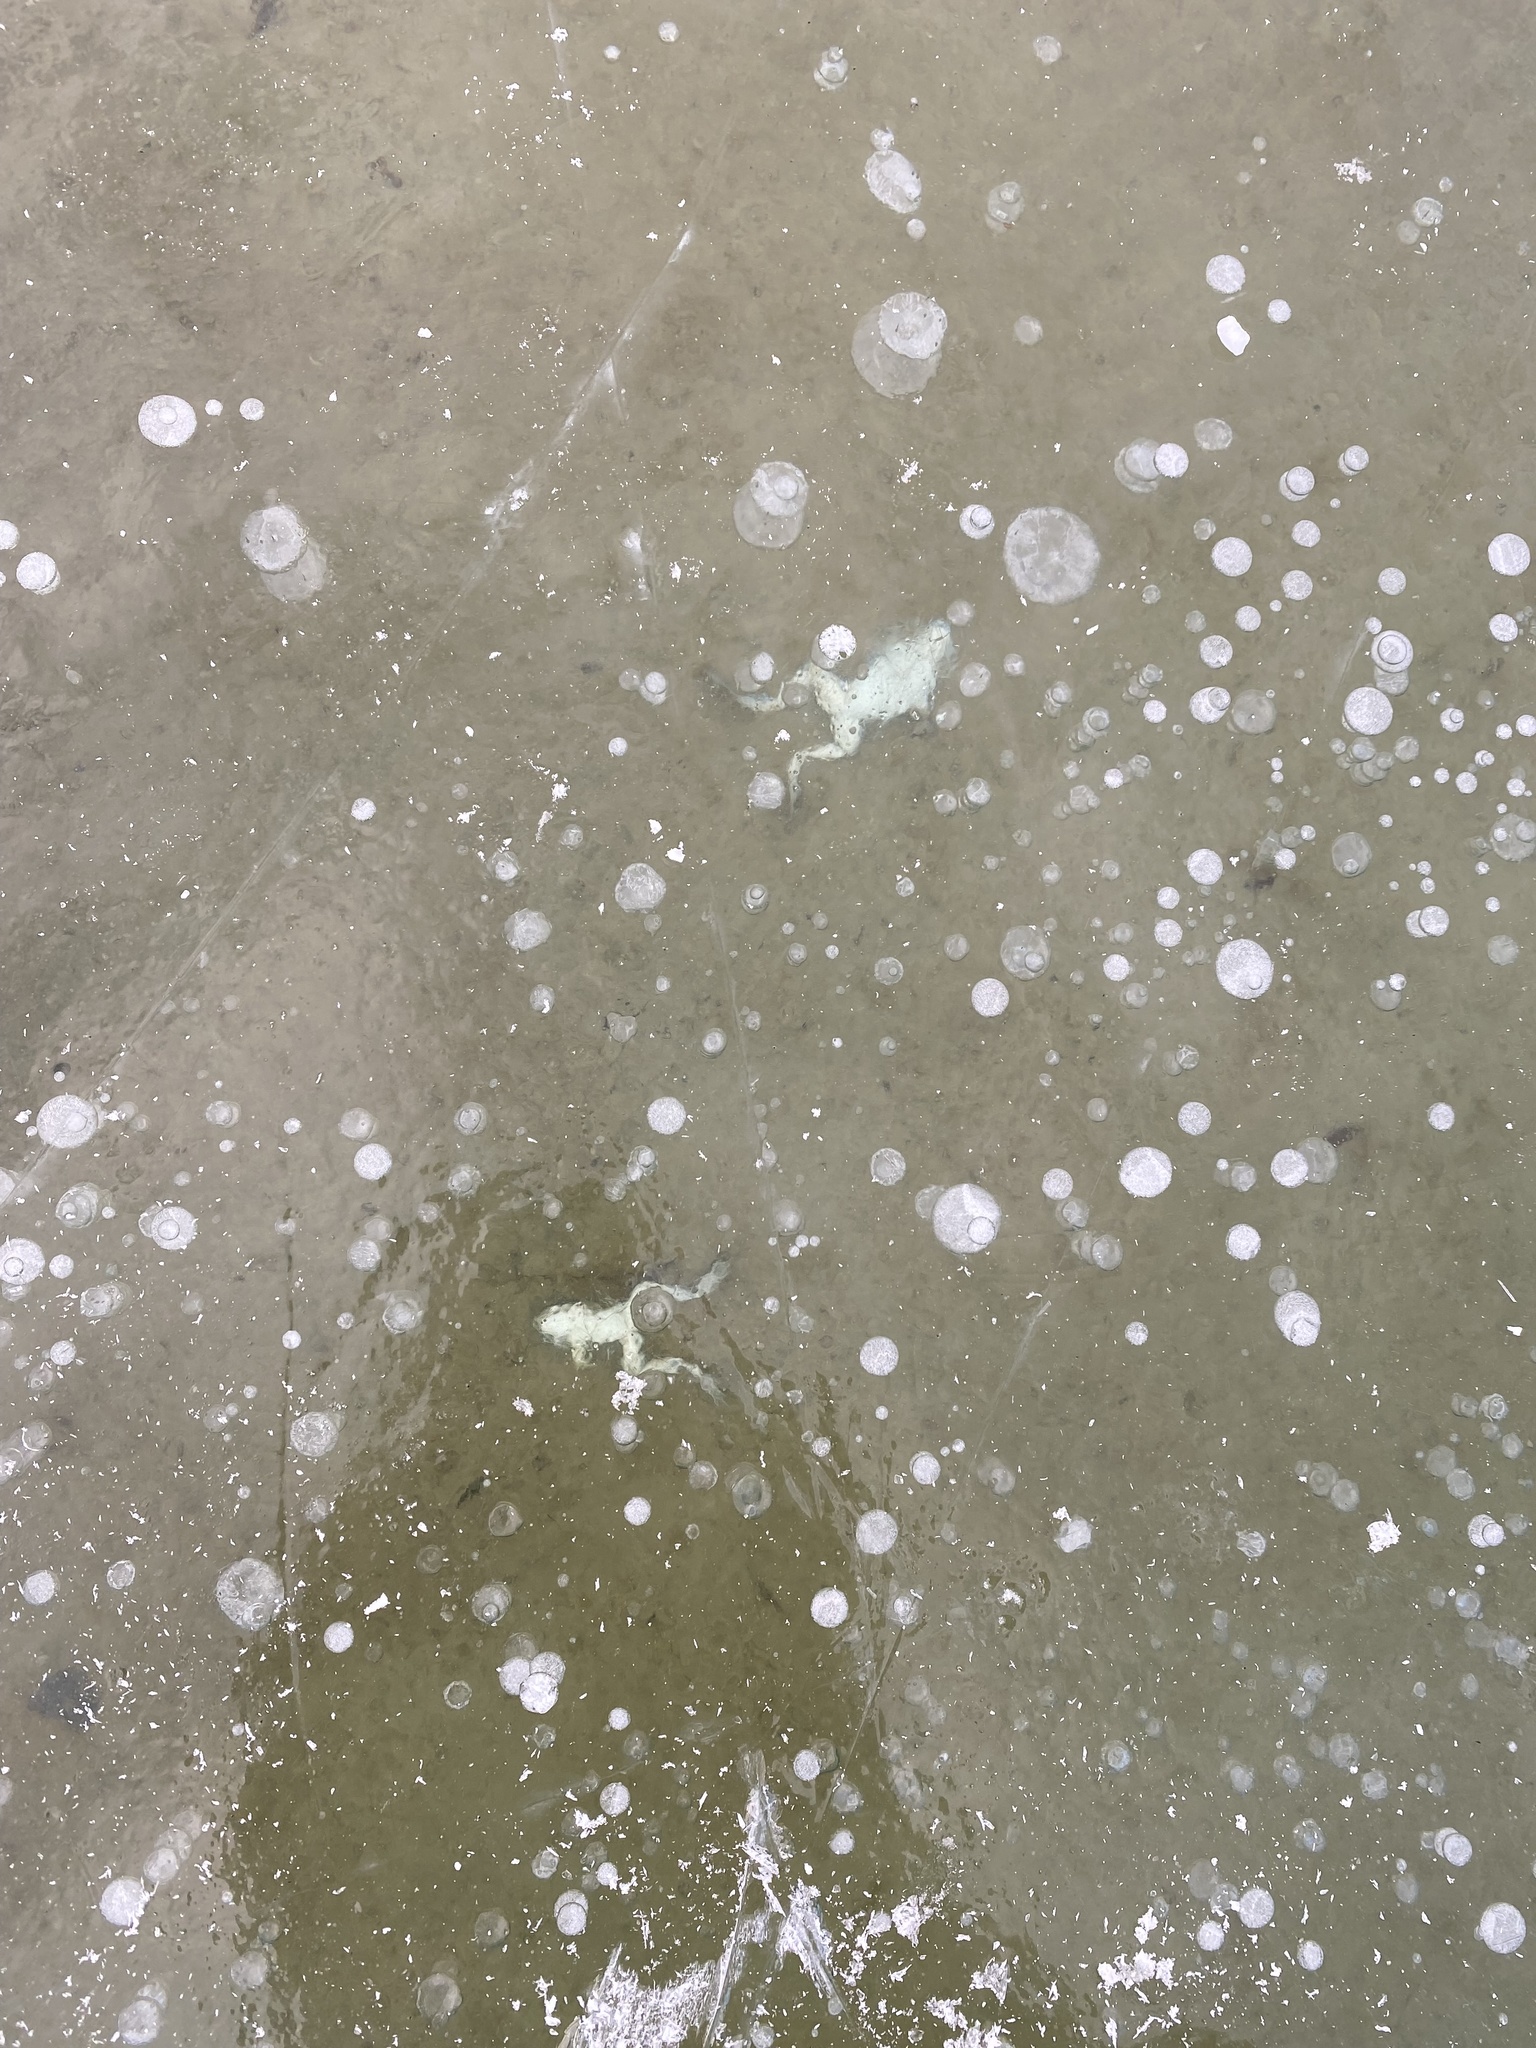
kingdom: Animalia
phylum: Chordata
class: Amphibia
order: Anura
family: Ranidae
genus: Lithobates
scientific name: Lithobates pipiens
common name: Northern leopard frog
